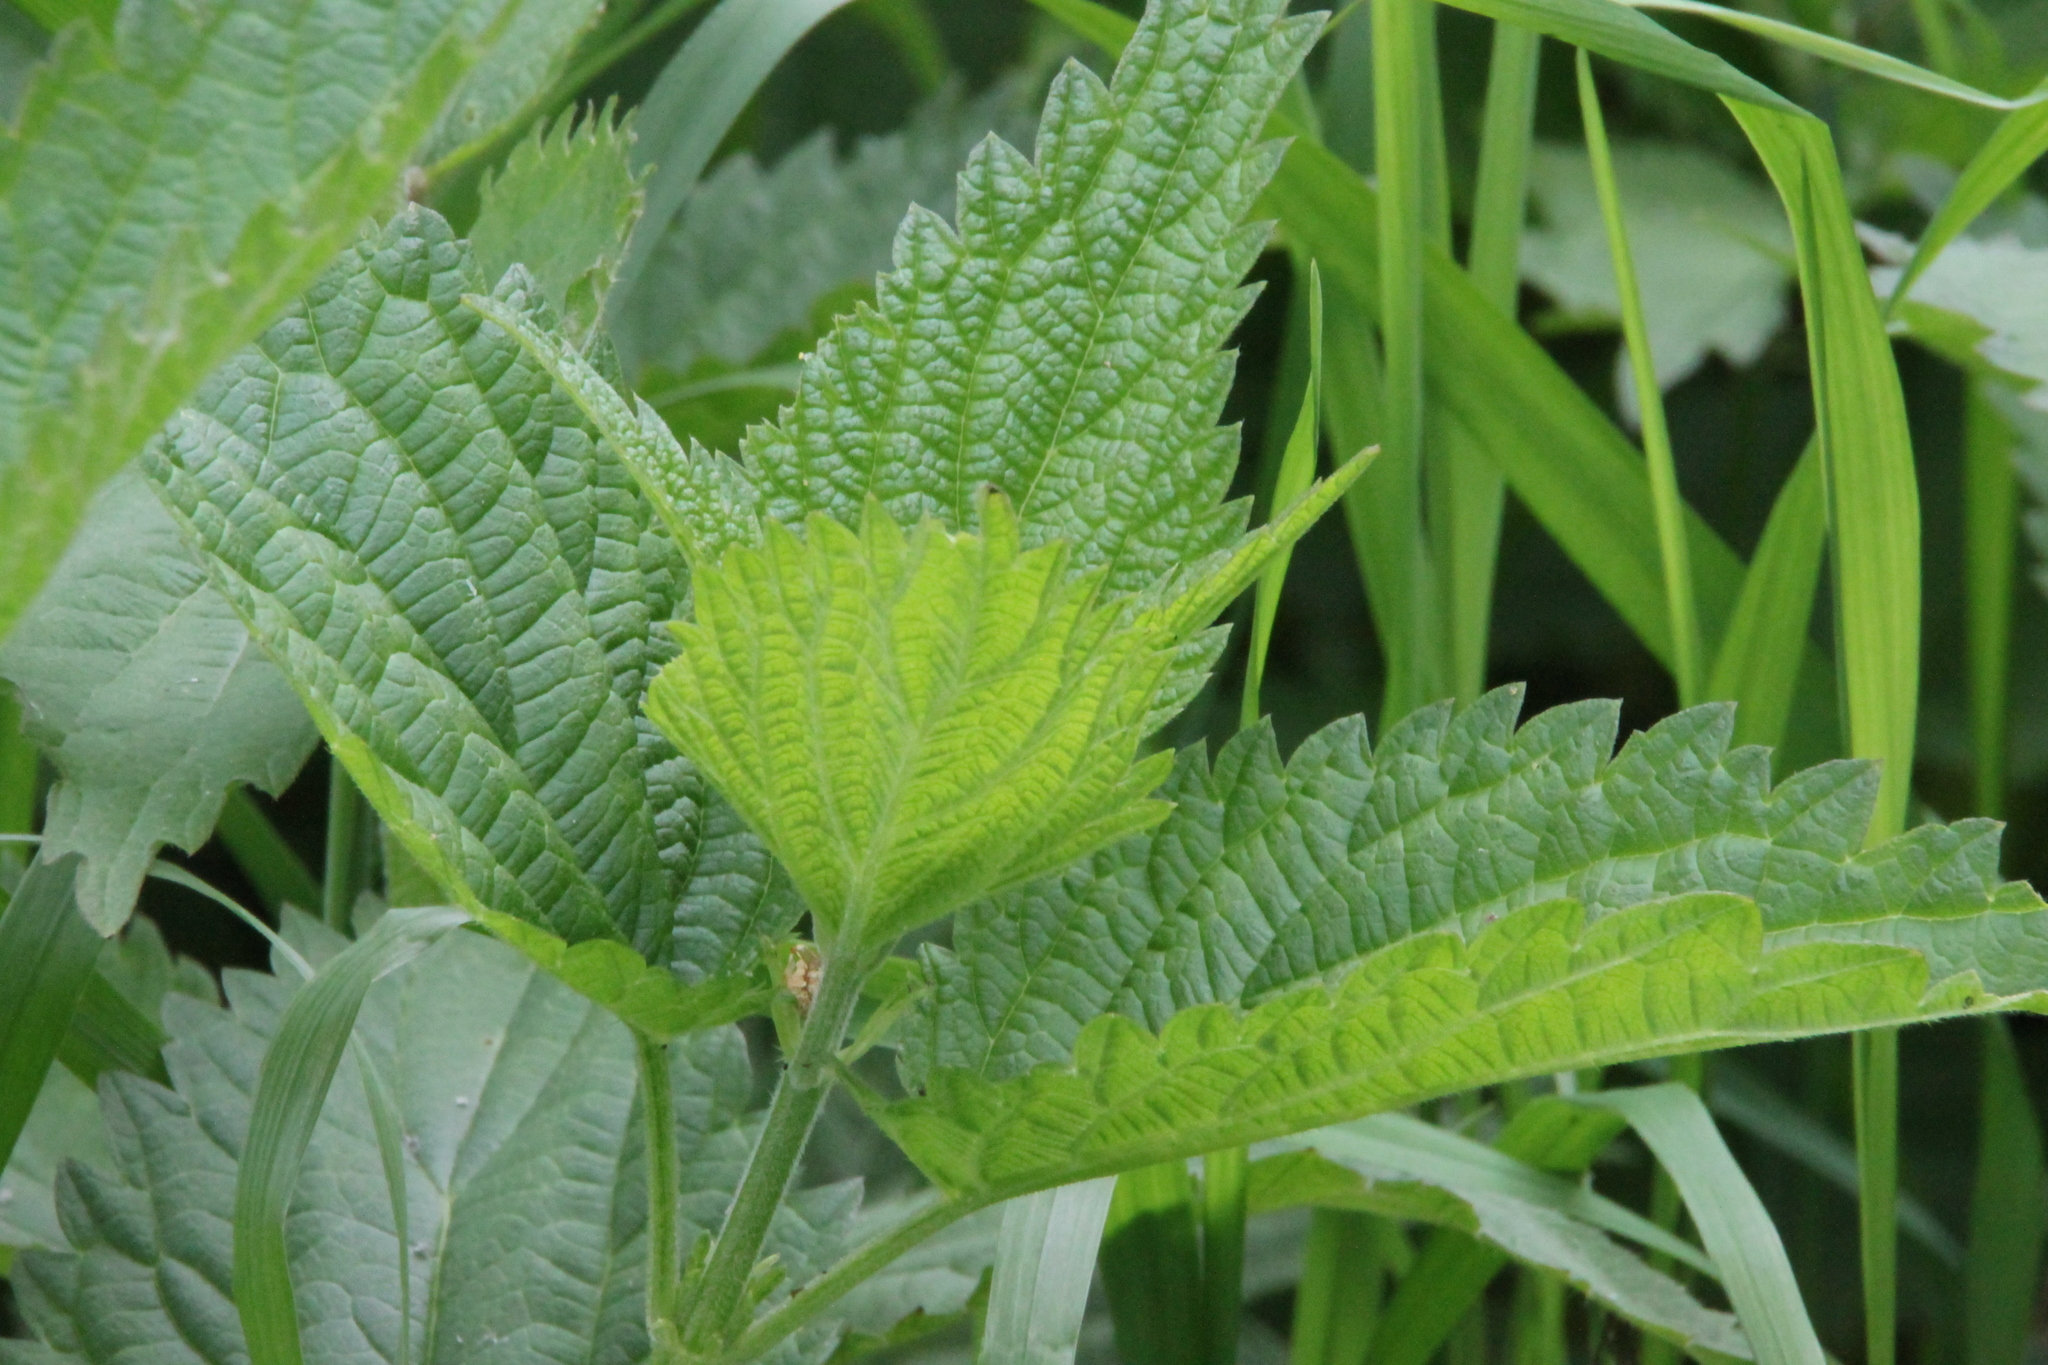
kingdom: Plantae
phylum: Tracheophyta
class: Magnoliopsida
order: Rosales
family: Urticaceae
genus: Urtica
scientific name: Urtica dioica
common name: Common nettle
